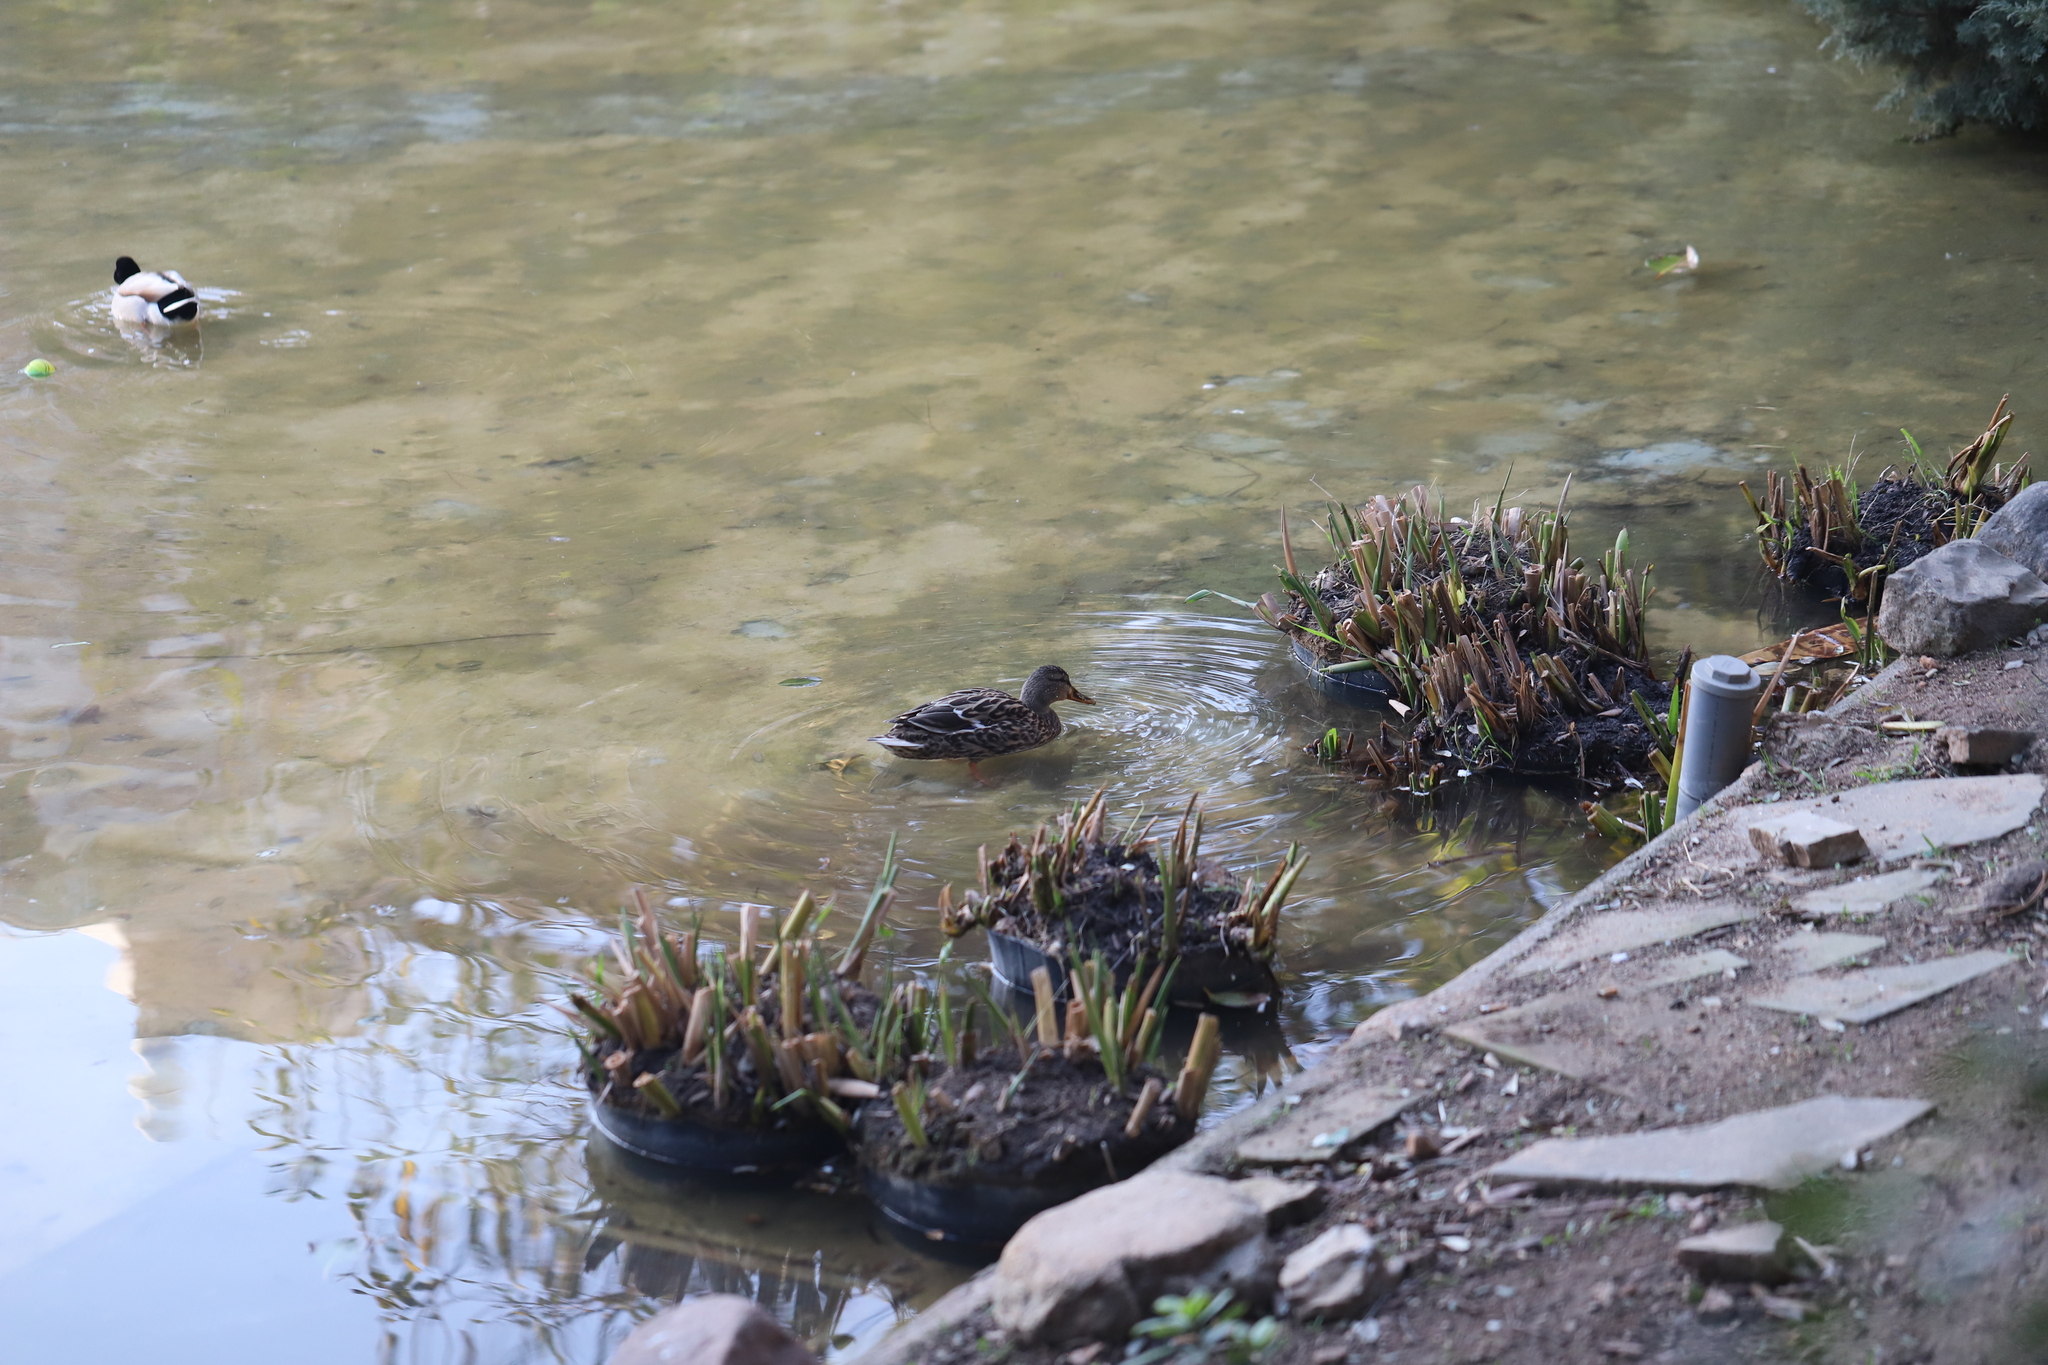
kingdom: Animalia
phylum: Chordata
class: Aves
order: Anseriformes
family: Anatidae
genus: Anas
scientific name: Anas platyrhynchos
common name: Mallard
